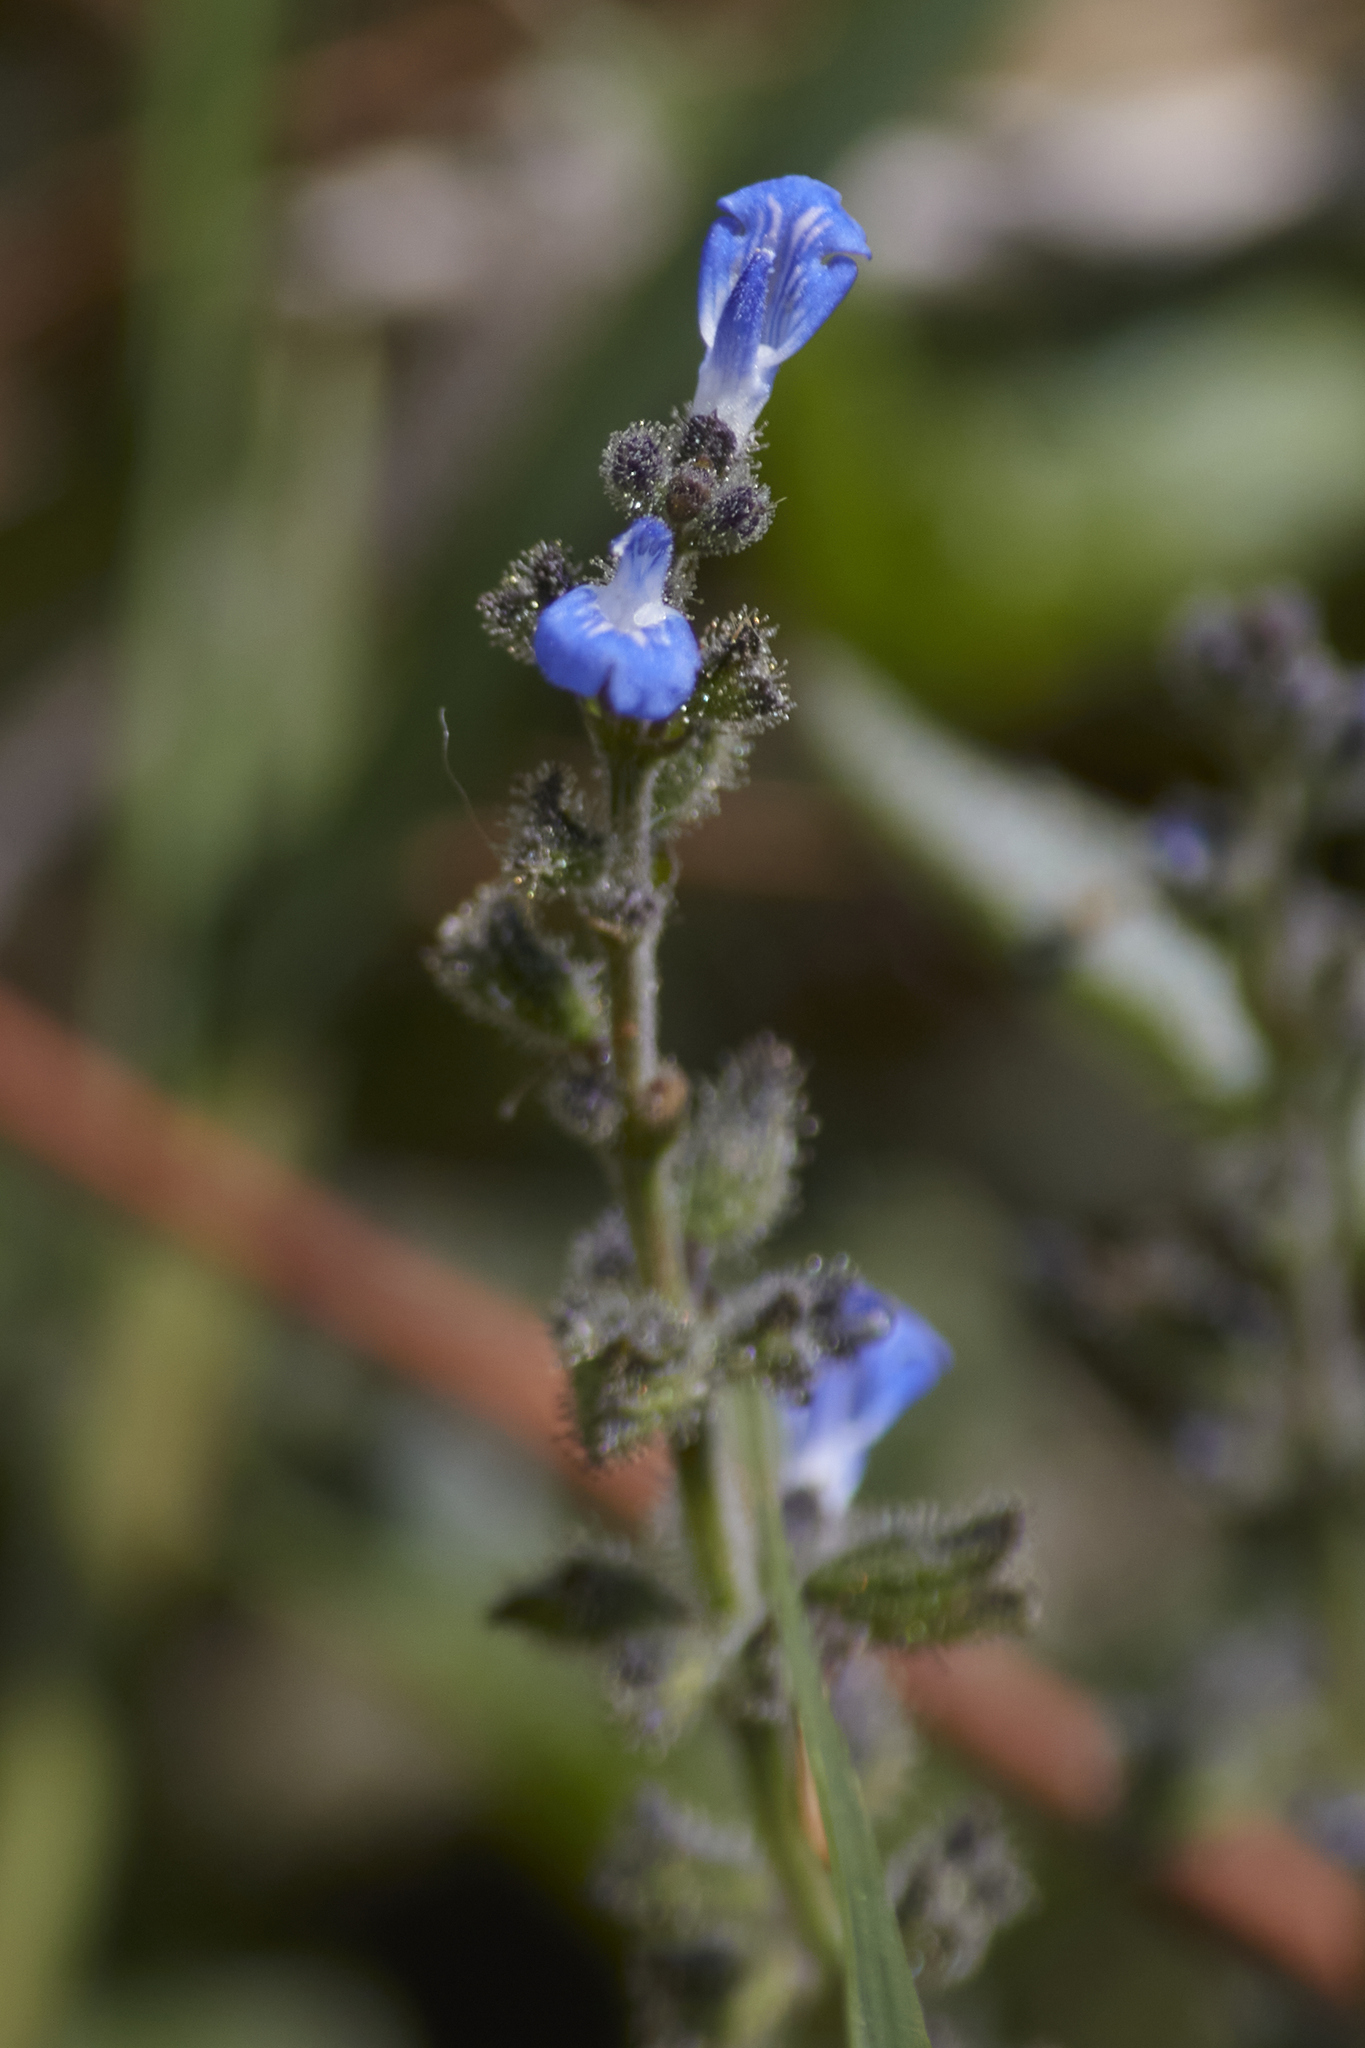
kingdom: Plantae
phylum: Tracheophyta
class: Magnoliopsida
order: Lamiales
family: Lamiaceae
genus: Salvia
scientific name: Salvia misella
